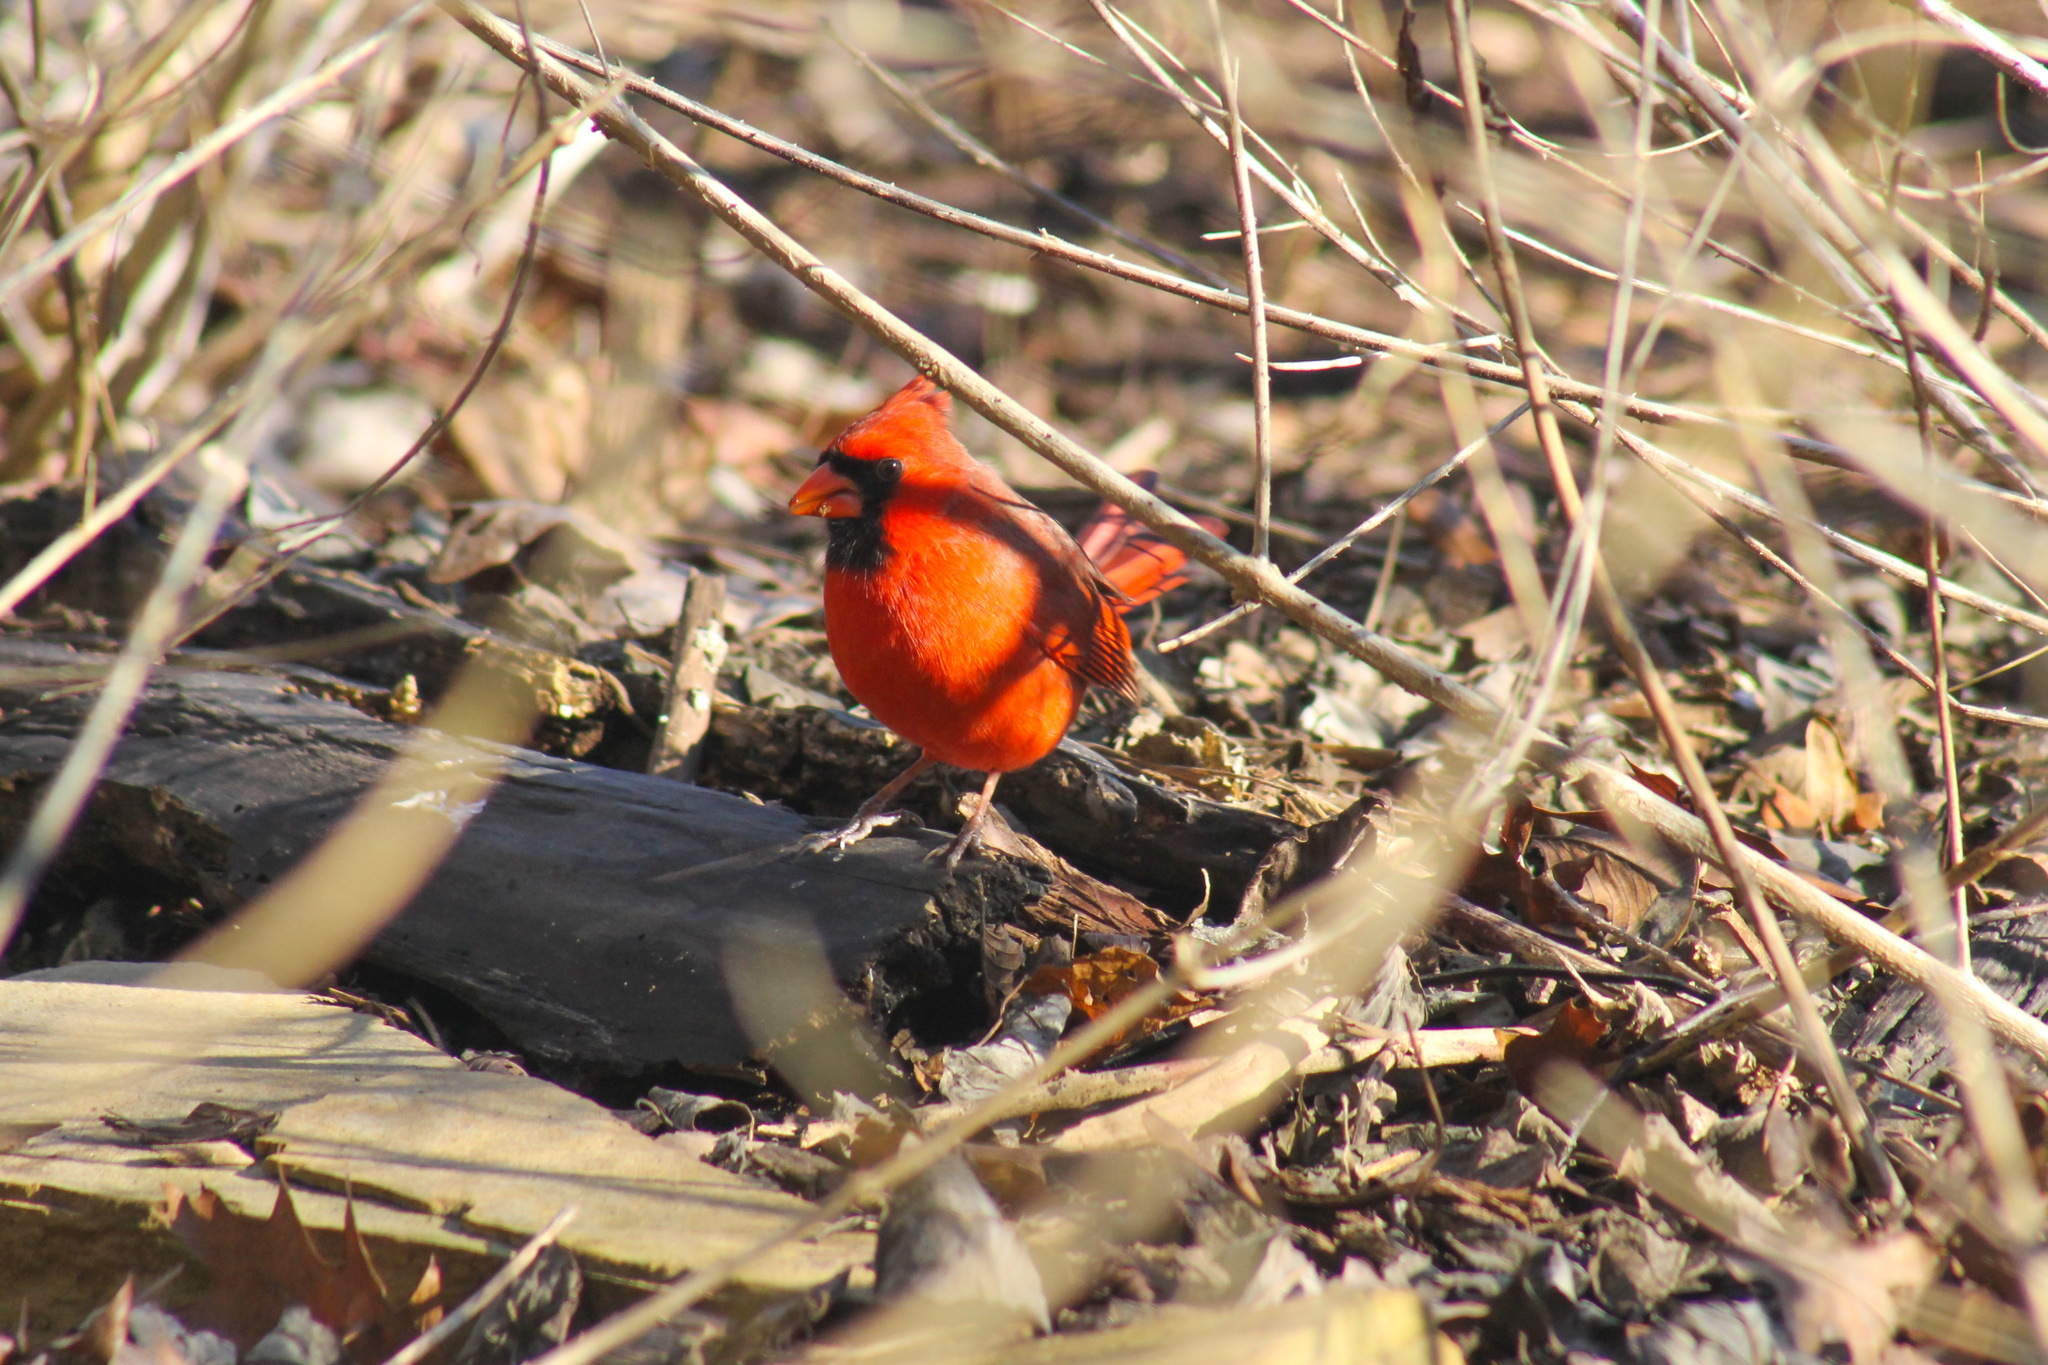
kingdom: Animalia
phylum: Chordata
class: Aves
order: Passeriformes
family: Cardinalidae
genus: Cardinalis
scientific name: Cardinalis cardinalis
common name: Northern cardinal
